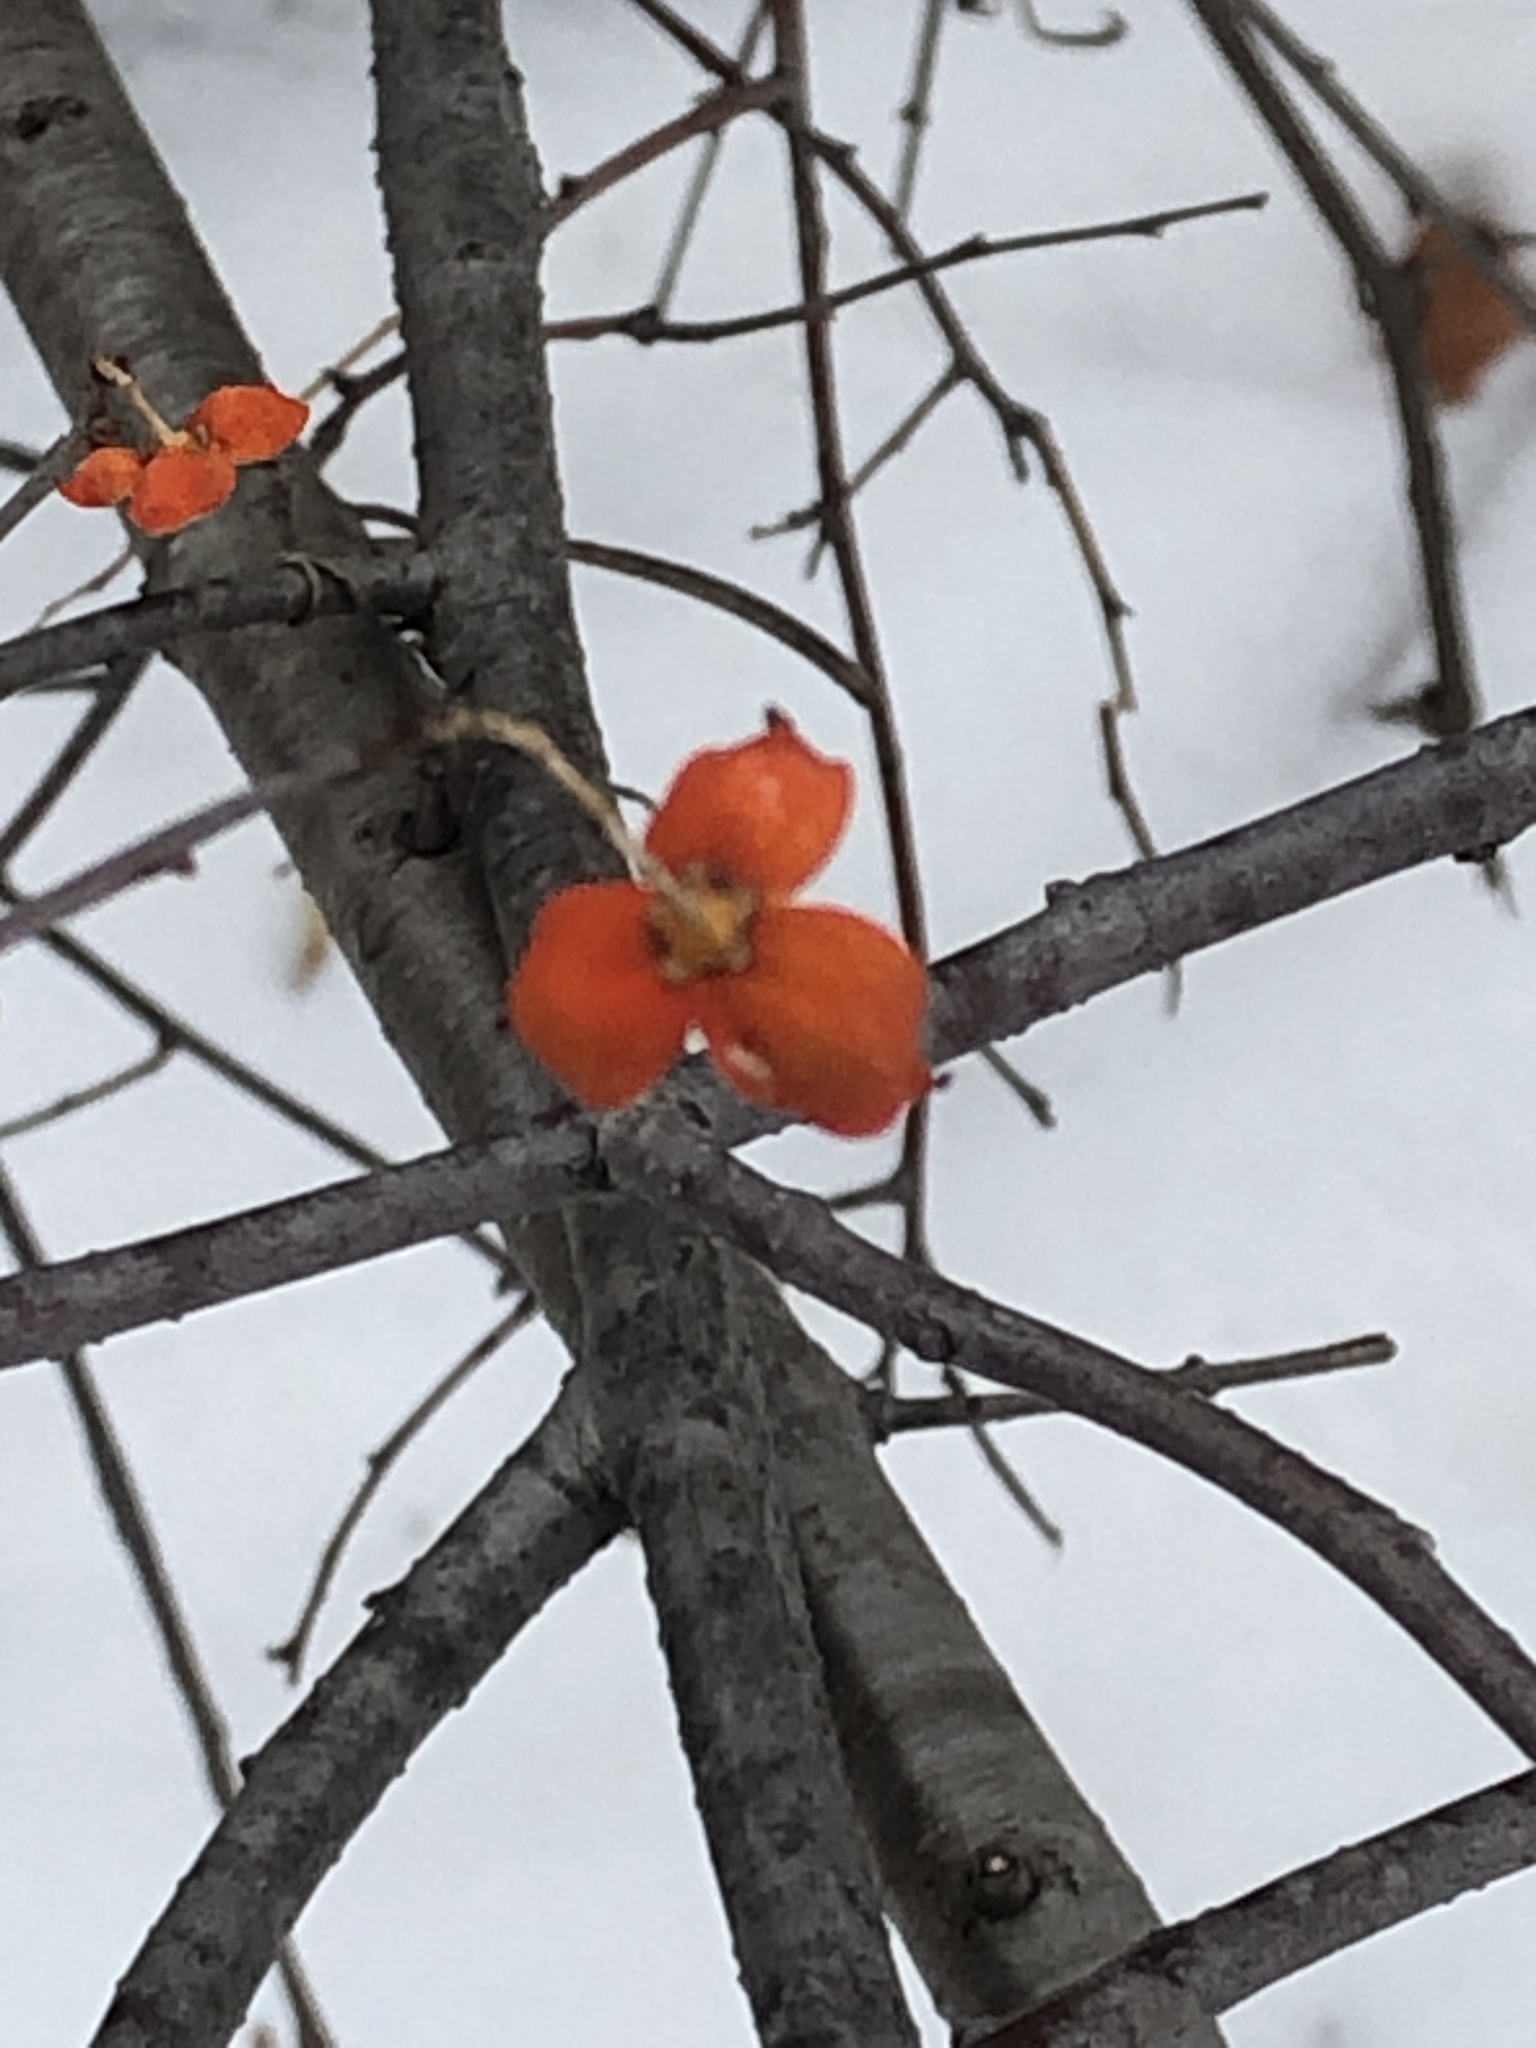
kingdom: Plantae
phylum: Tracheophyta
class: Magnoliopsida
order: Celastrales
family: Celastraceae
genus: Celastrus
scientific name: Celastrus scandens
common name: American bittersweet
